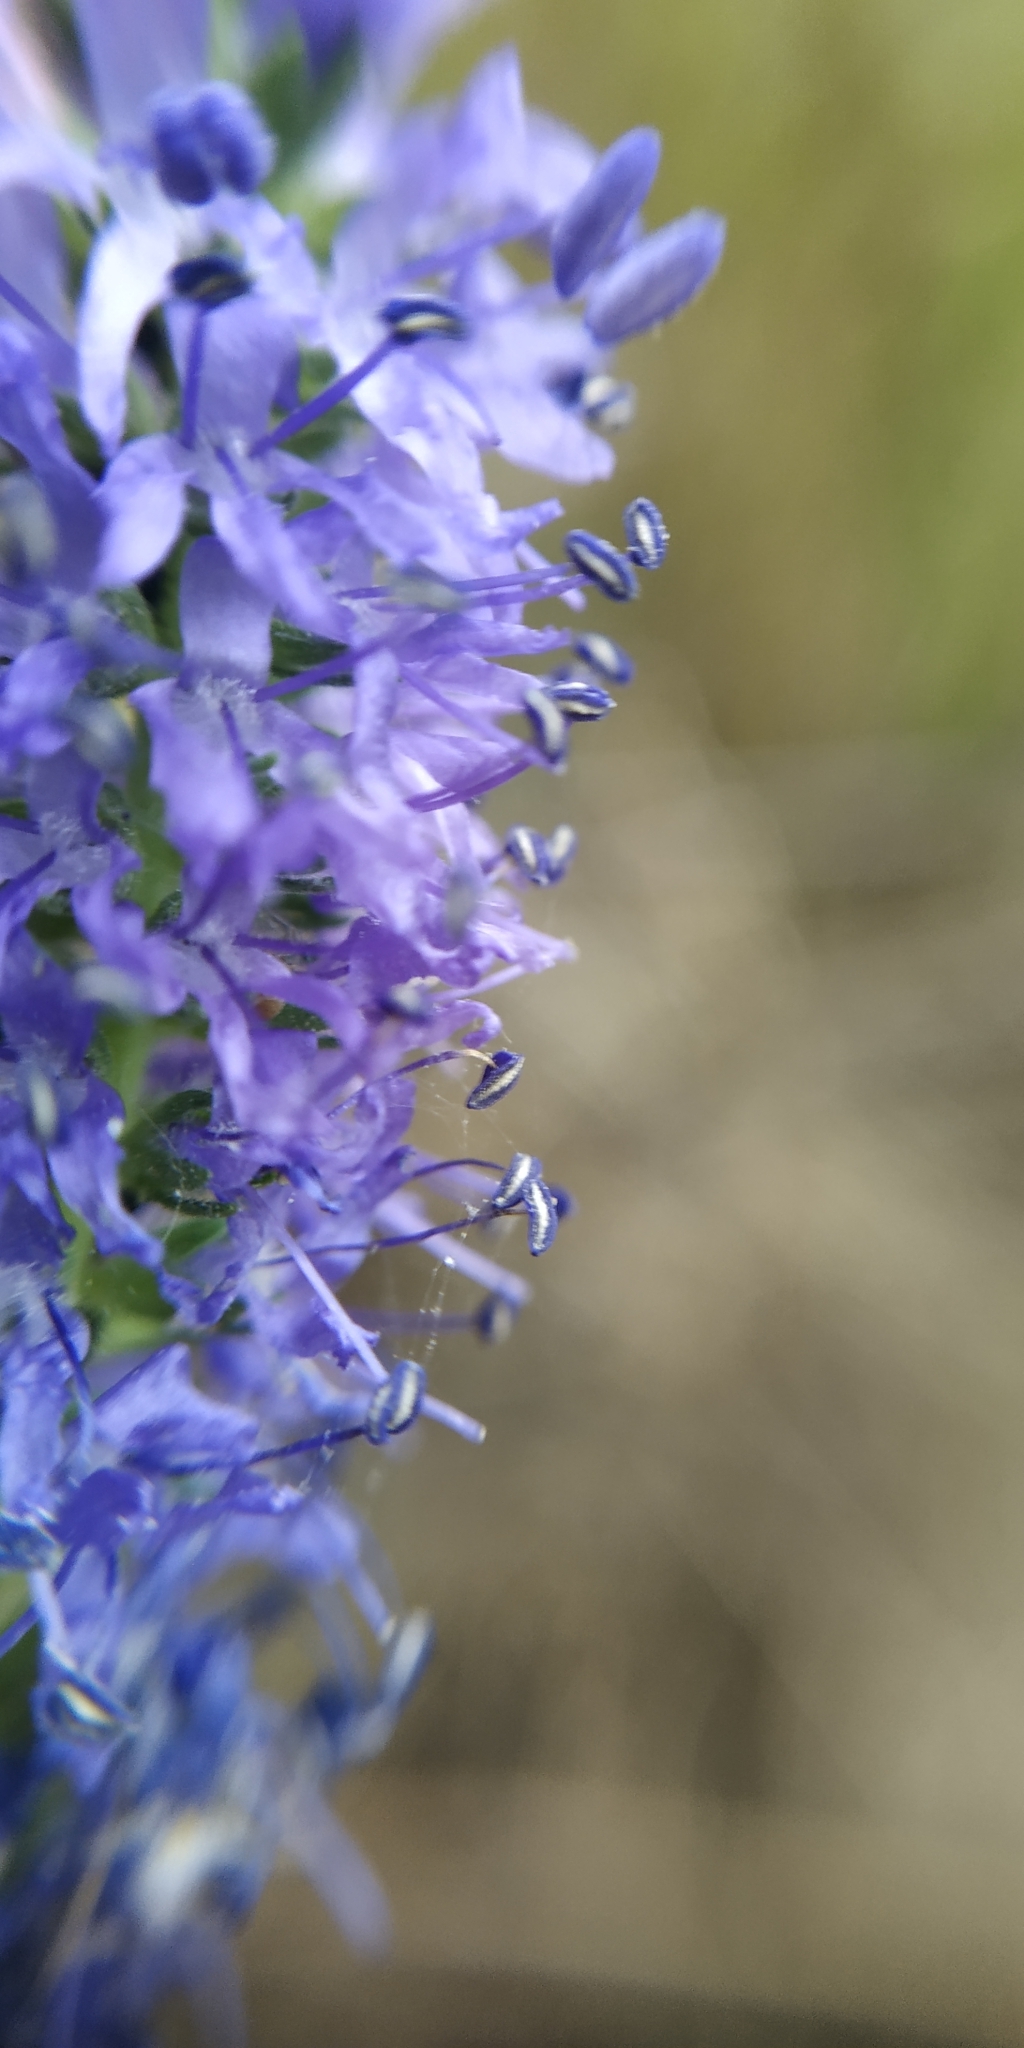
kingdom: Plantae
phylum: Tracheophyta
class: Magnoliopsida
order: Lamiales
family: Plantaginaceae
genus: Veronica
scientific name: Veronica spicata
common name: Spiked speedwell
